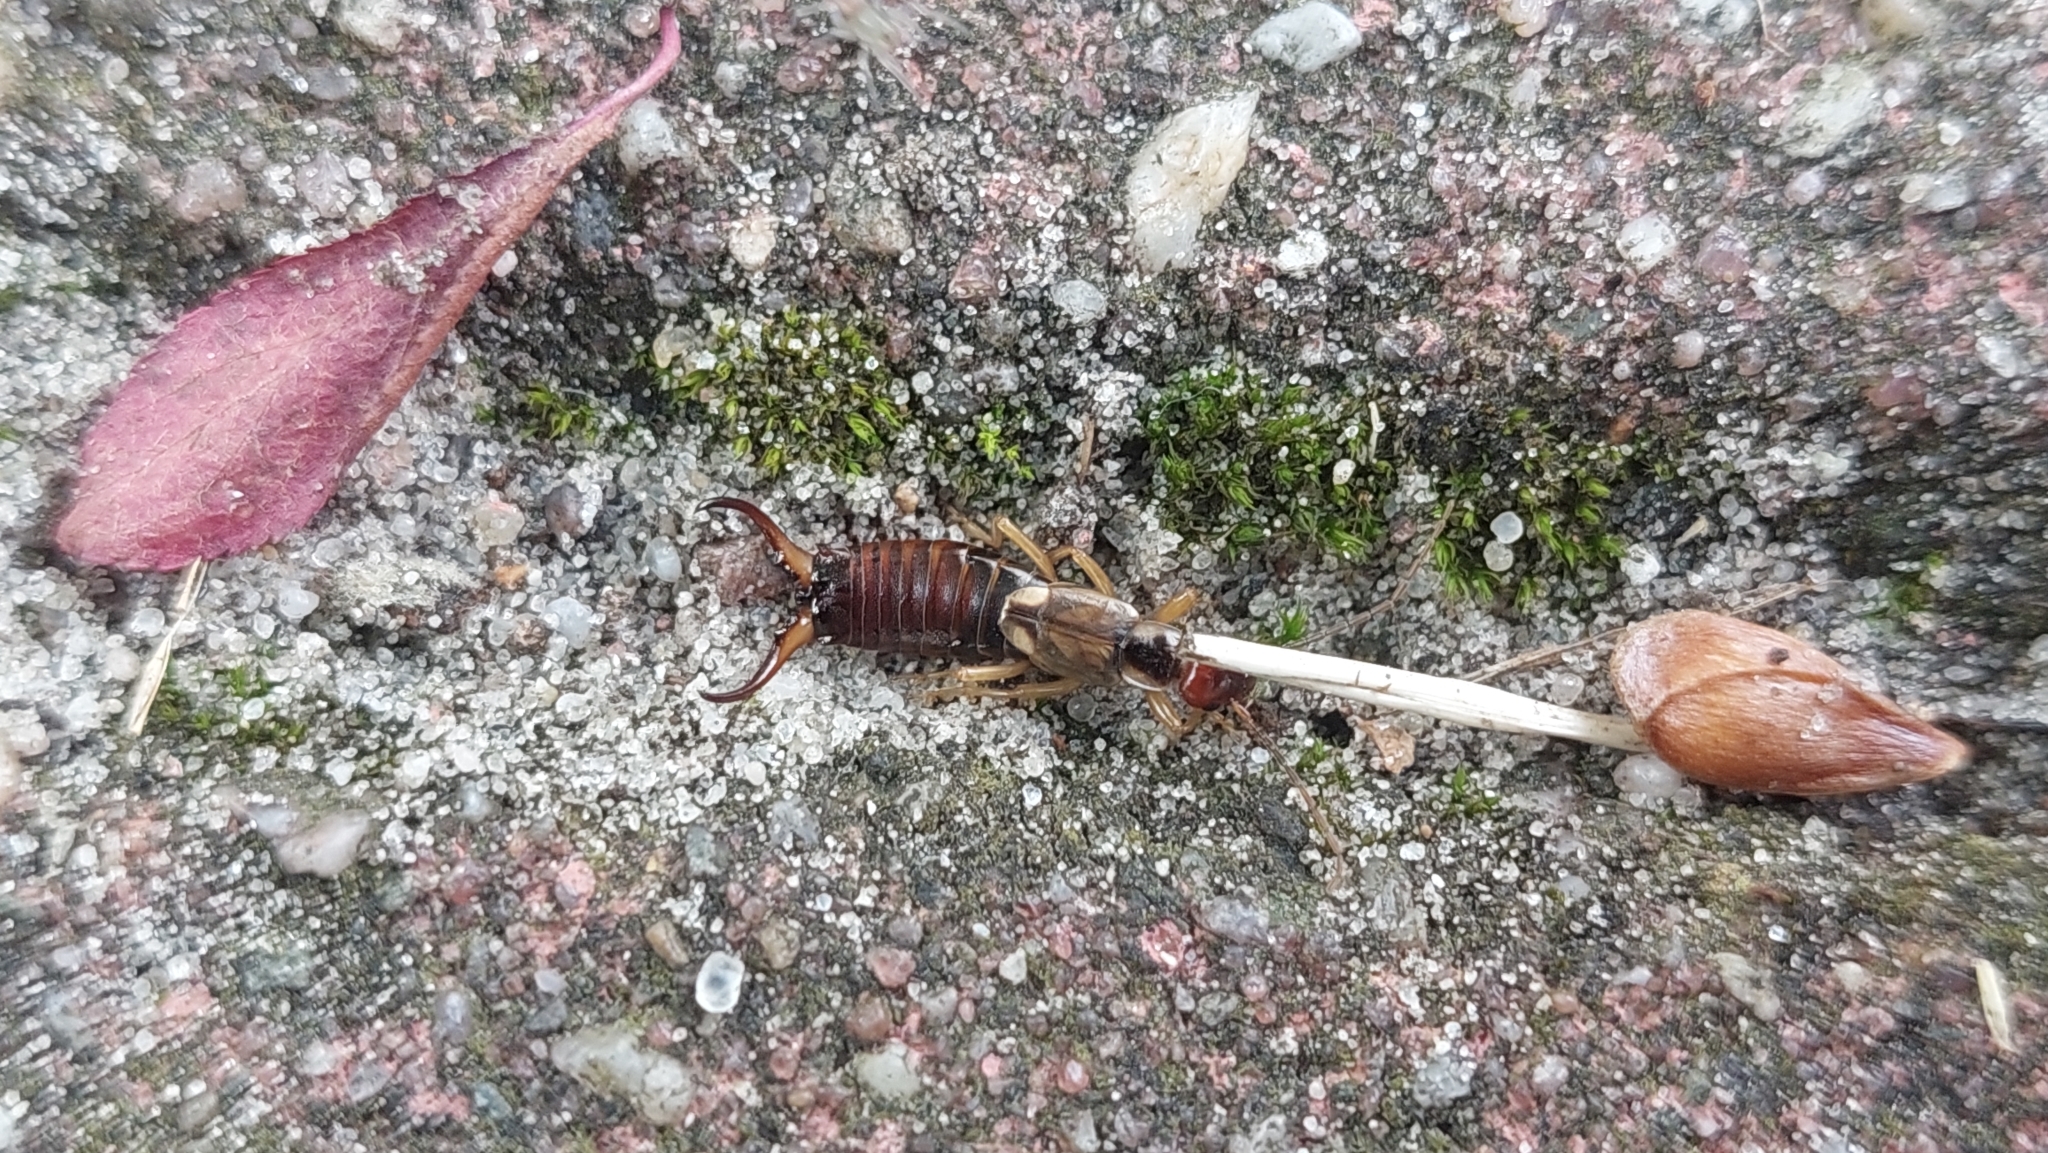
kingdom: Animalia
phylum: Arthropoda
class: Insecta
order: Dermaptera
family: Forficulidae
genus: Forficula
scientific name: Forficula
